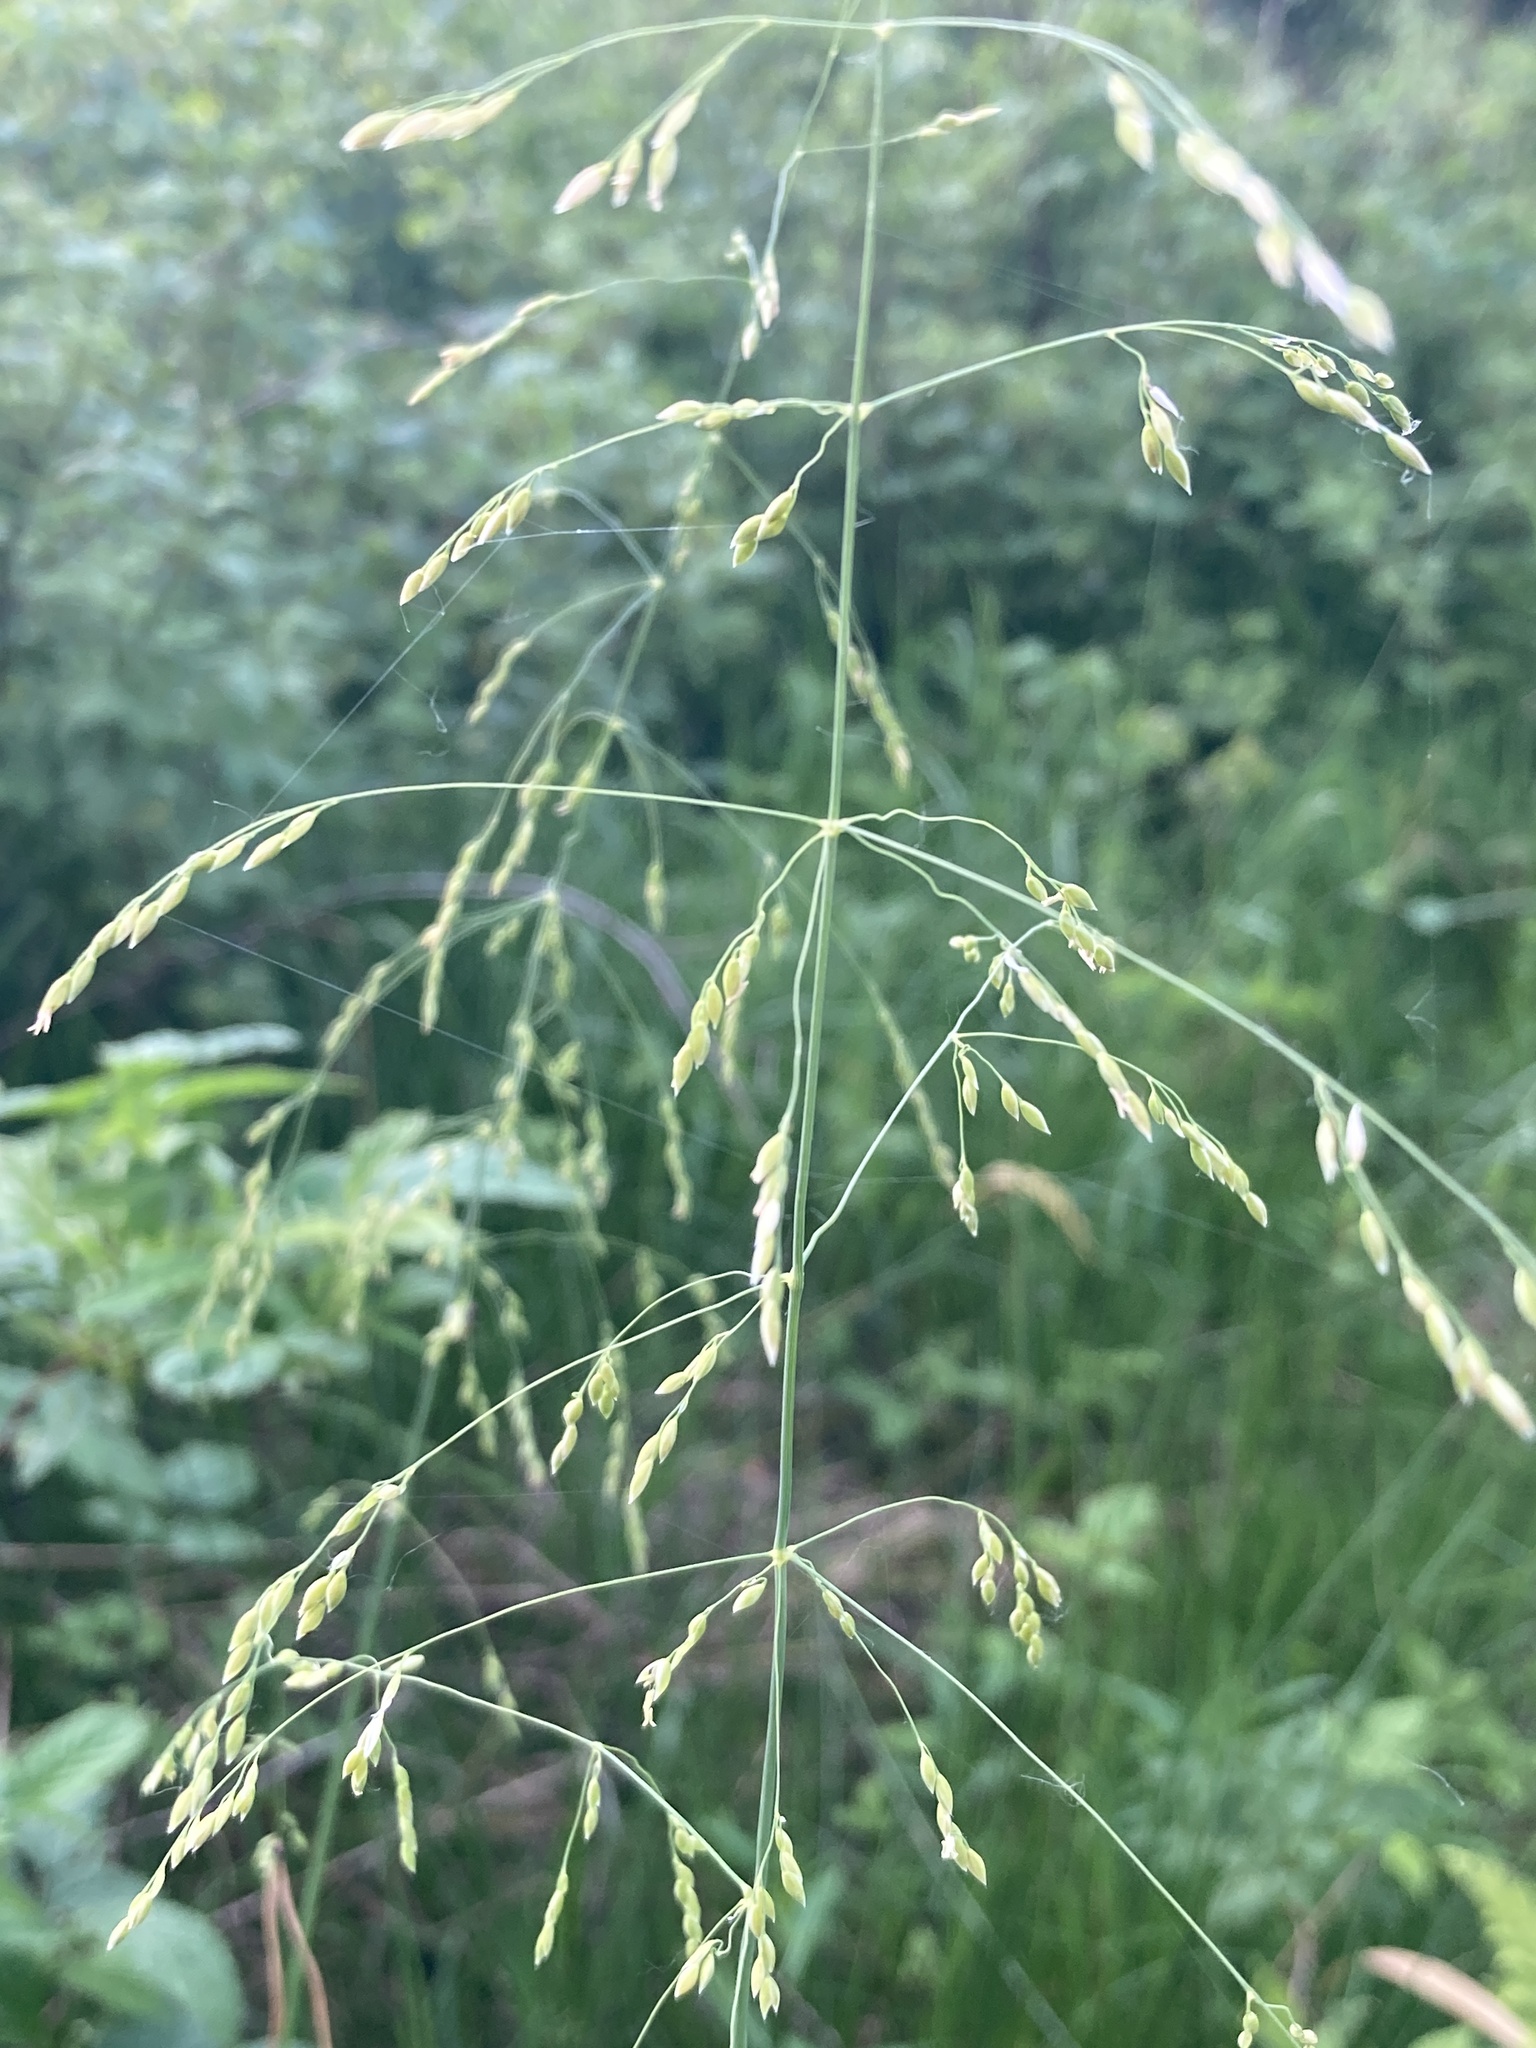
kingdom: Plantae
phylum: Tracheophyta
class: Liliopsida
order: Poales
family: Poaceae
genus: Milium
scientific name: Milium effusum
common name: Wood millet
